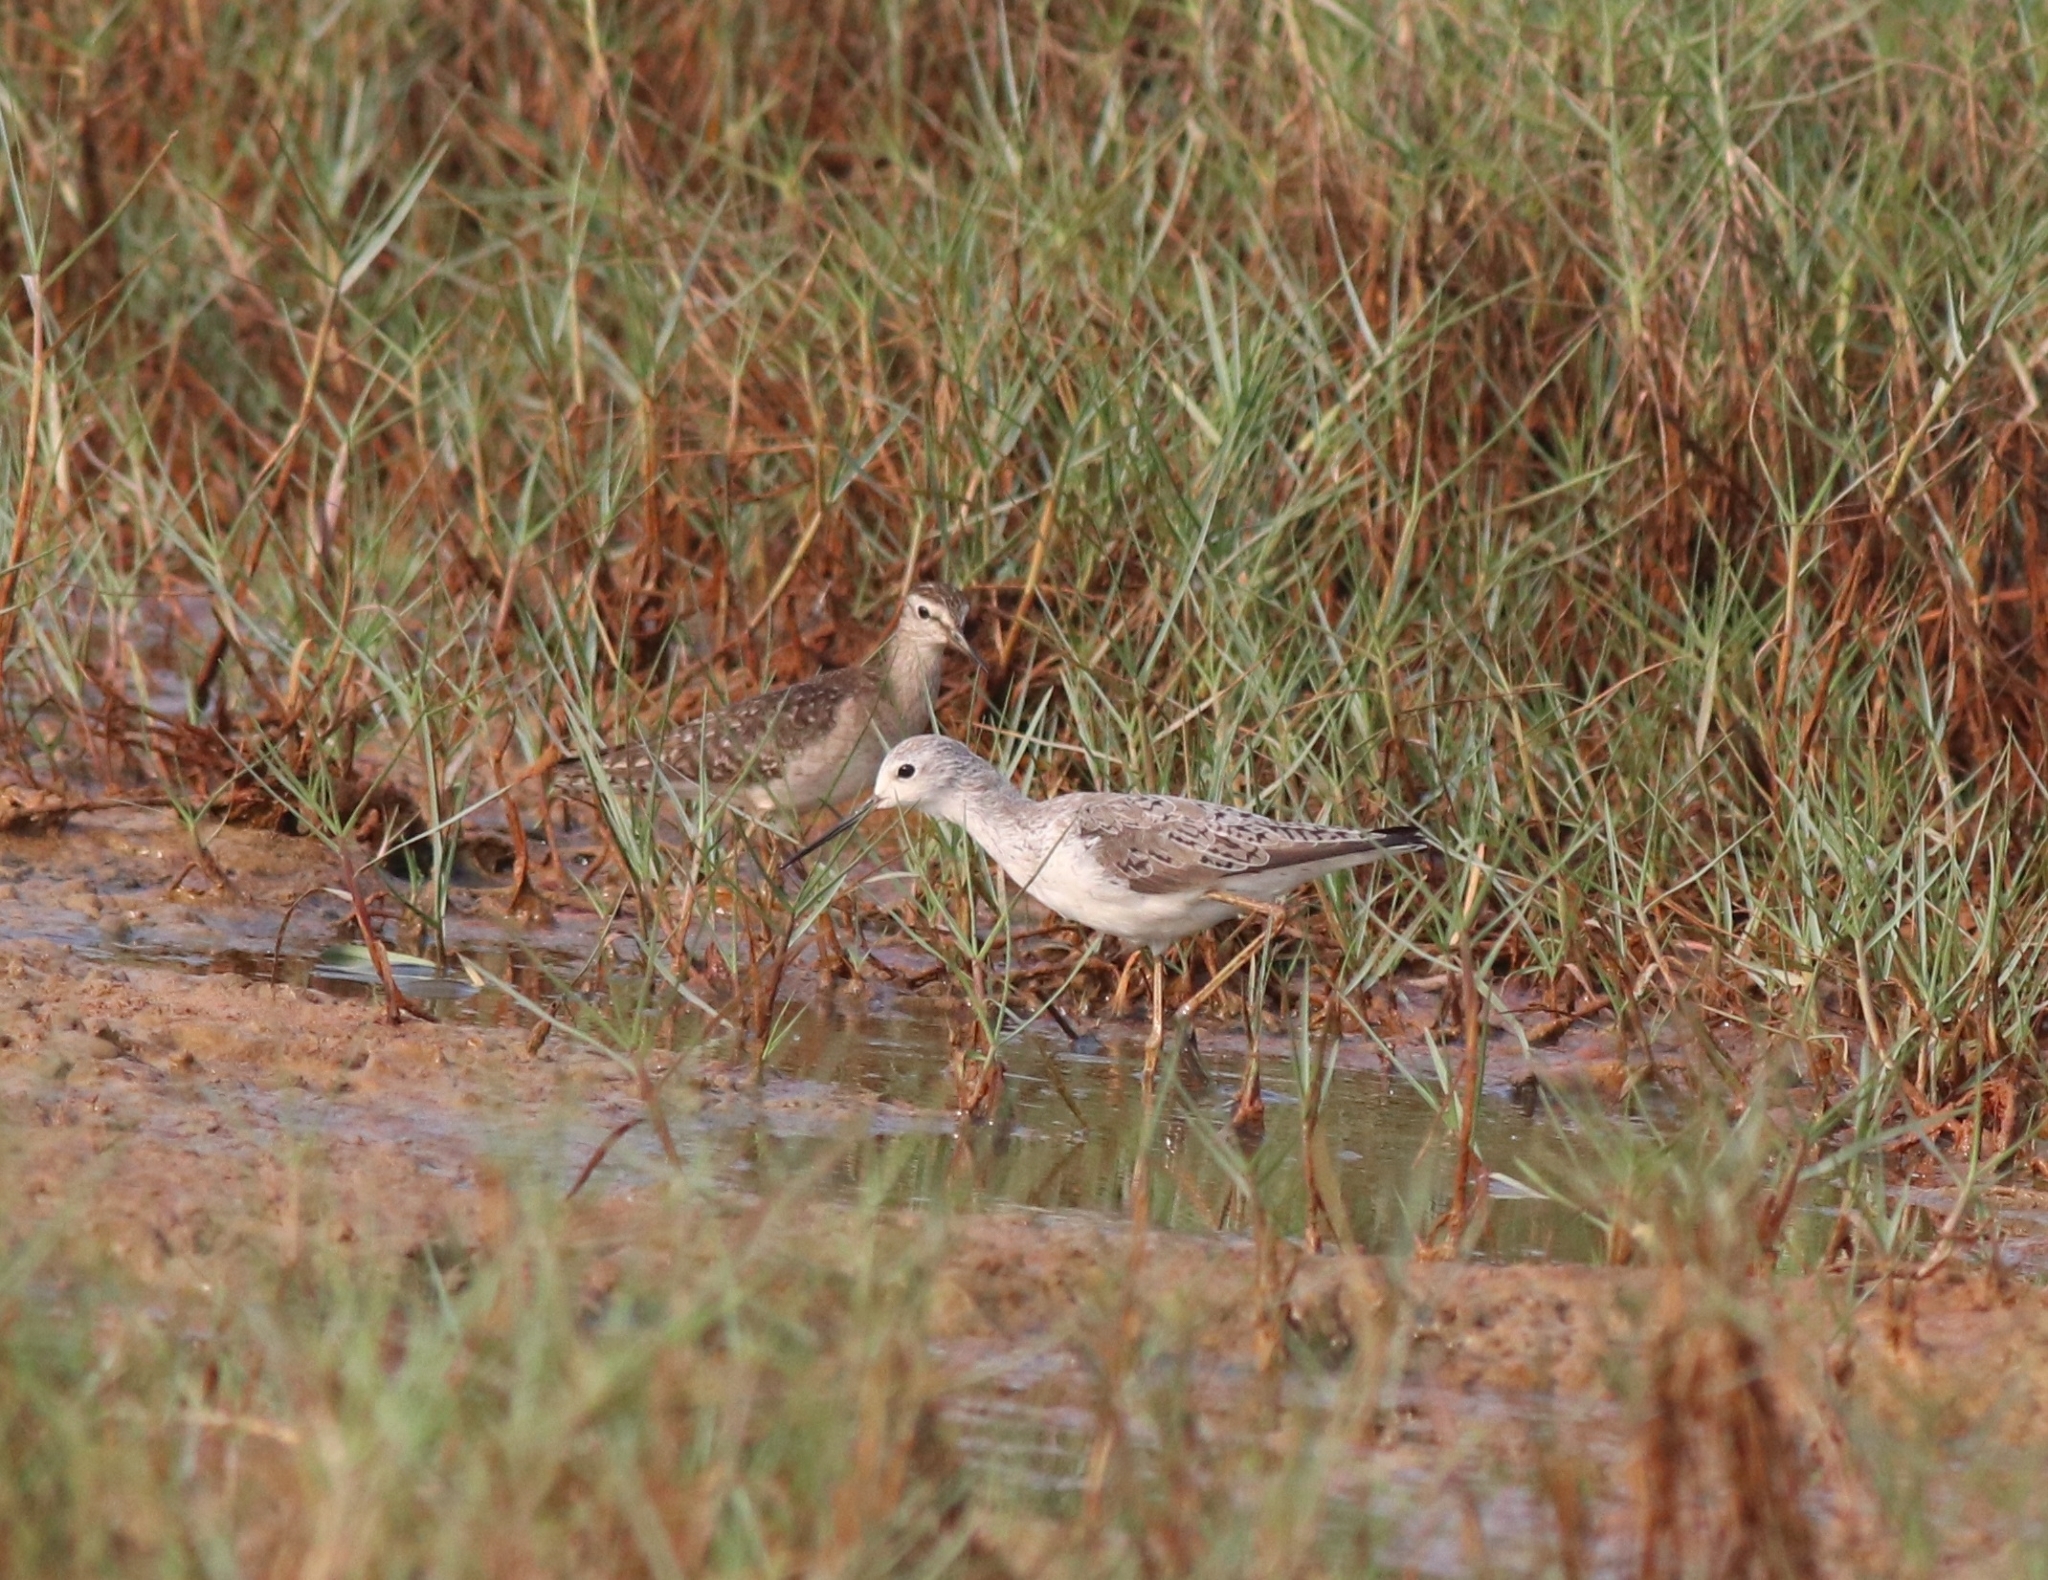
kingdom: Animalia
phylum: Chordata
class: Aves
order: Charadriiformes
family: Scolopacidae
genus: Tringa
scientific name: Tringa stagnatilis
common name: Marsh sandpiper
